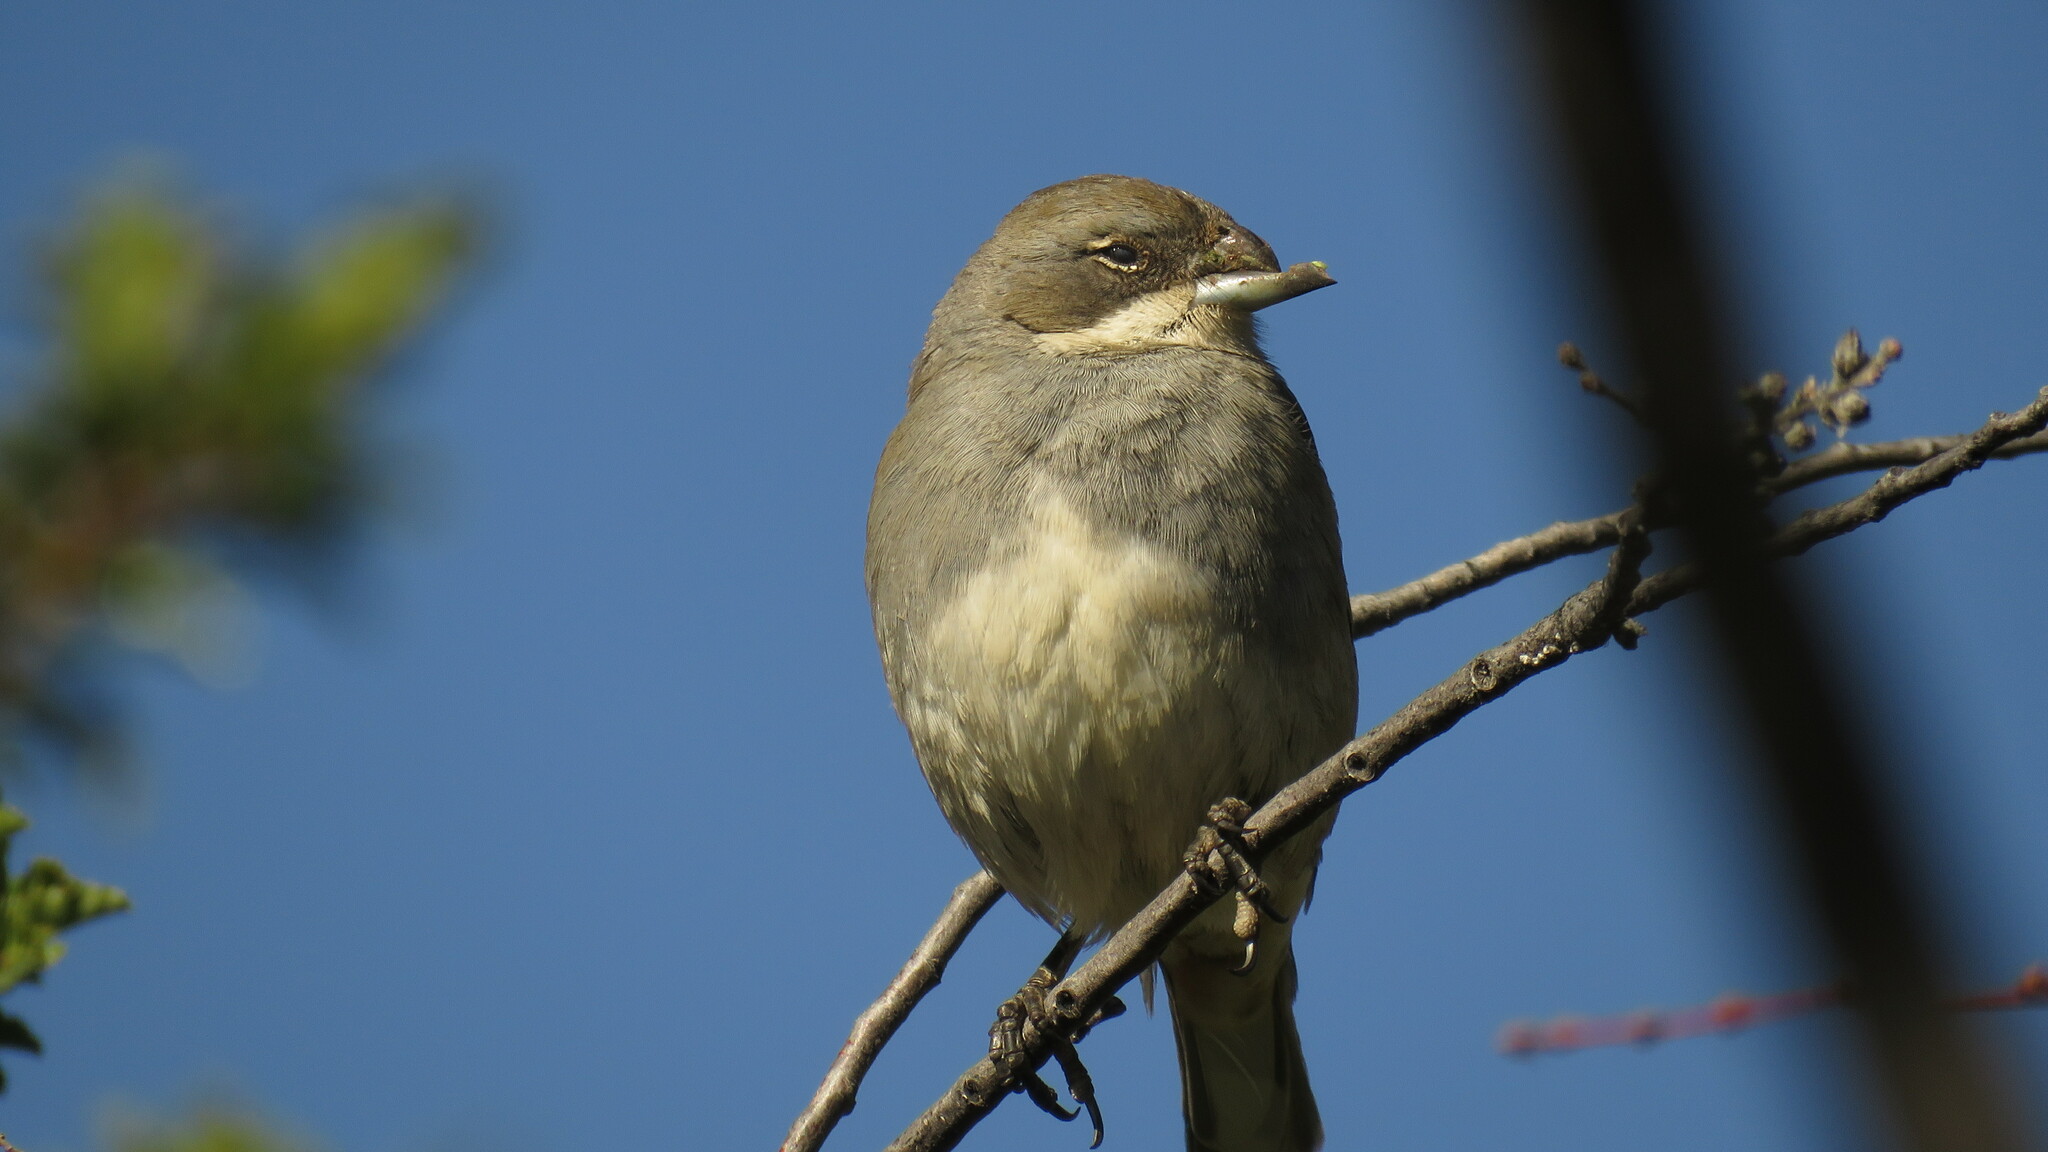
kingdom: Animalia
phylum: Chordata
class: Aves
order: Passeriformes
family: Thraupidae
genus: Diuca
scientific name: Diuca diuca
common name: Common diuca finch
